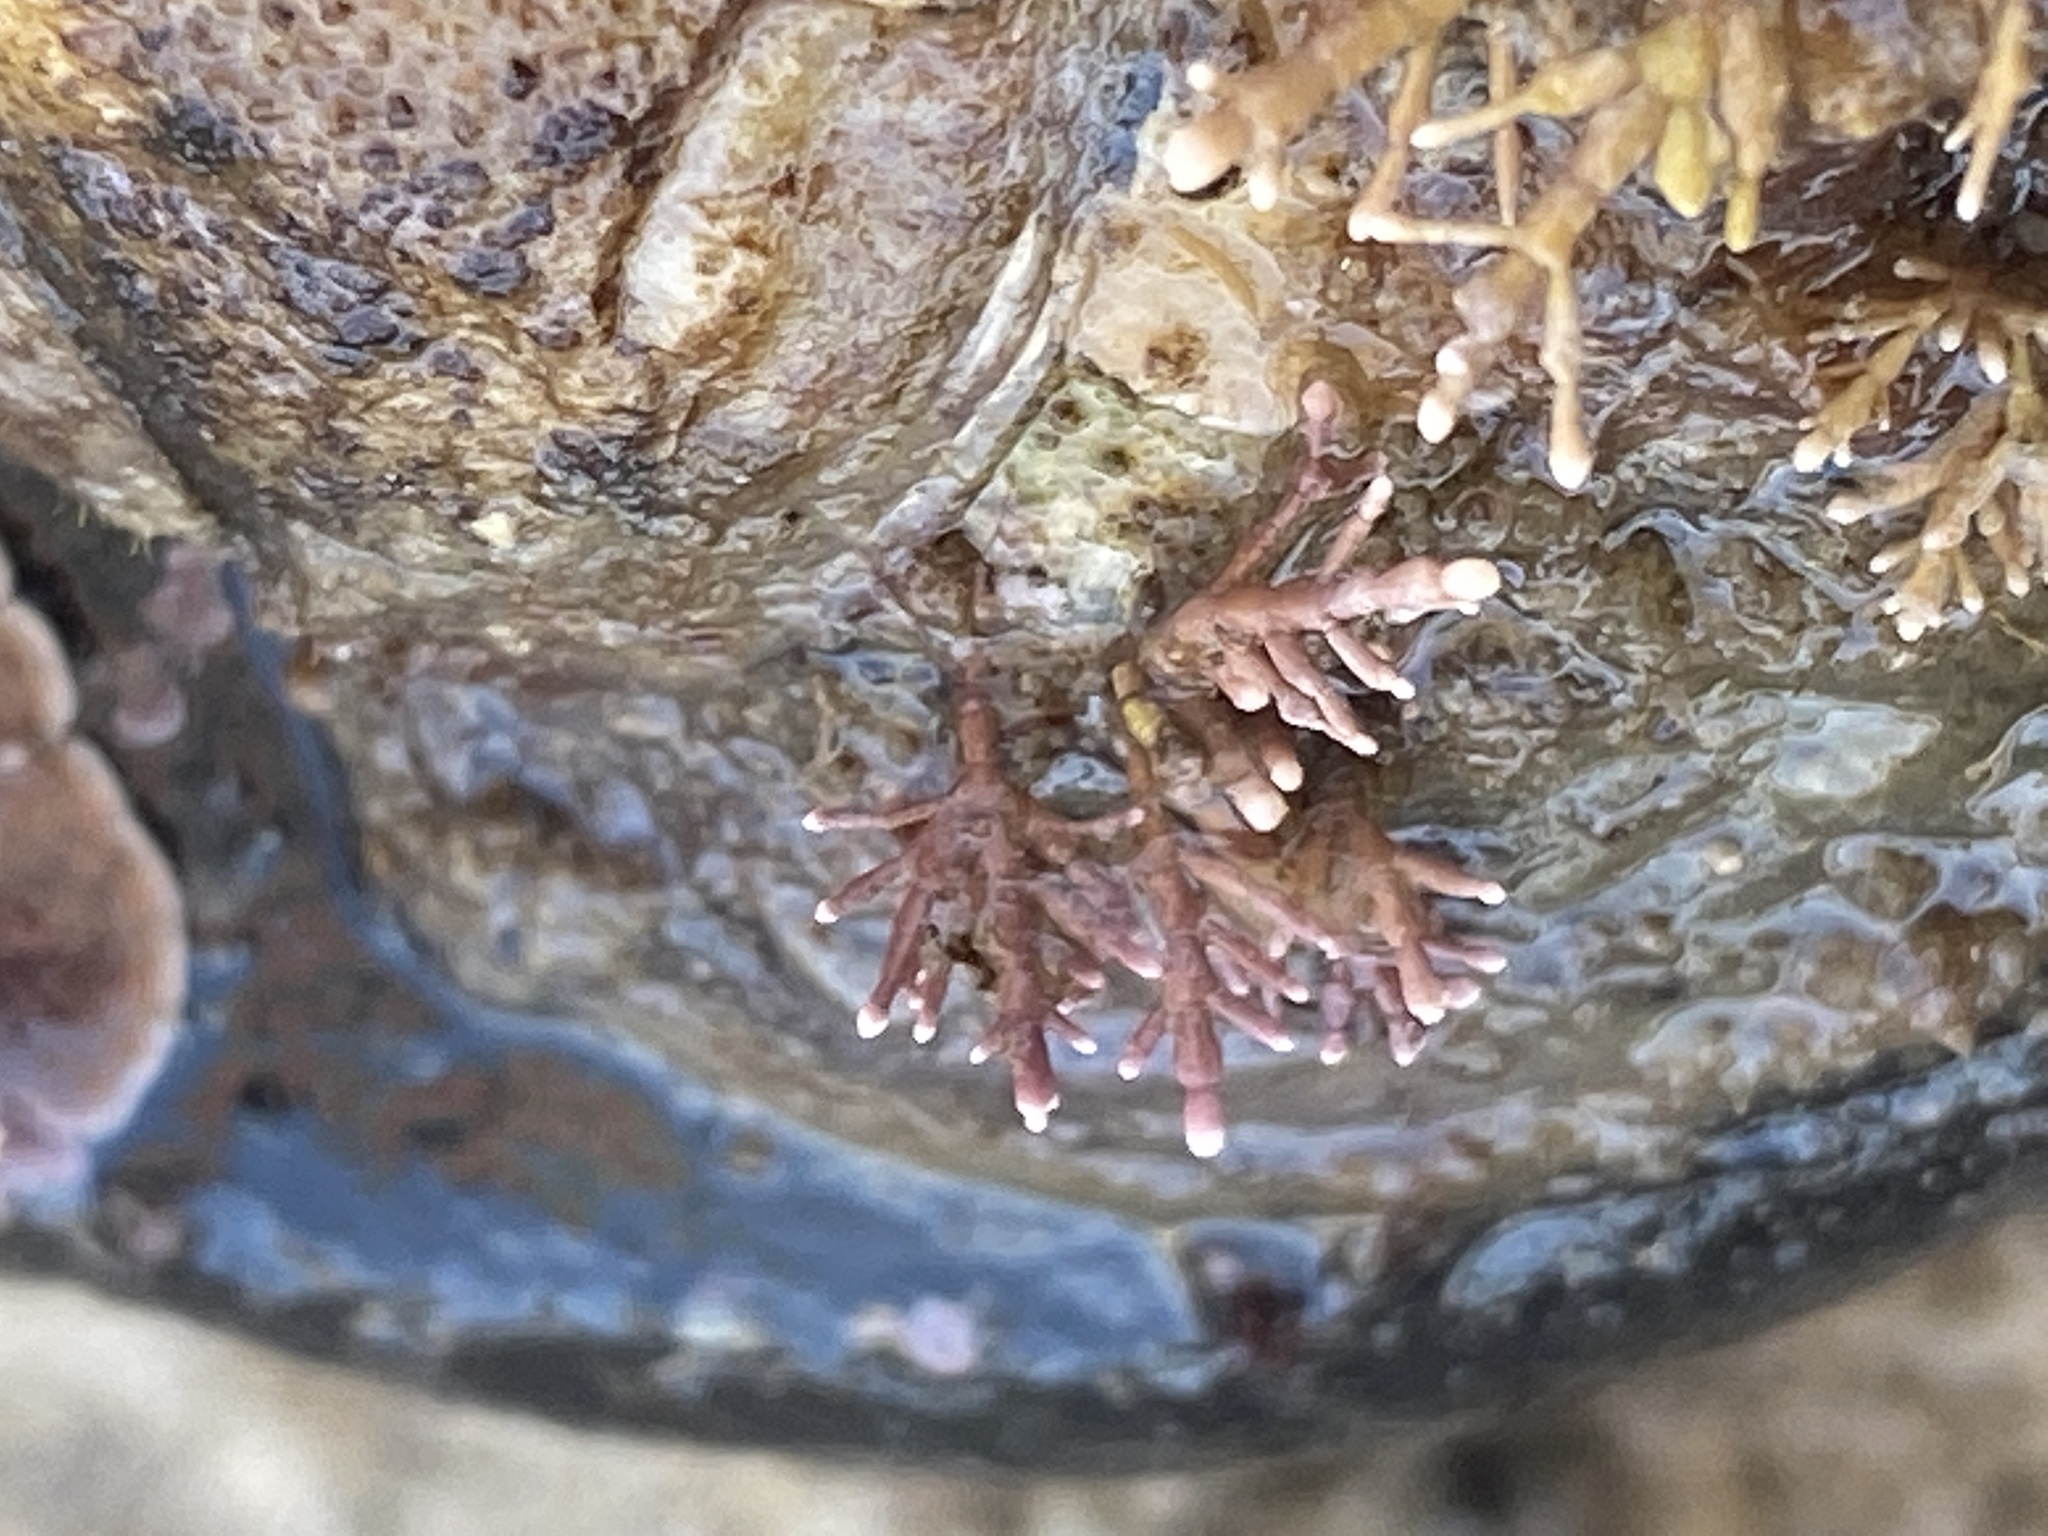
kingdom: Plantae
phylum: Rhodophyta
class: Florideophyceae
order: Corallinales
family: Corallinaceae
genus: Corallina
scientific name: Corallina officinalis
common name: Coral weed
